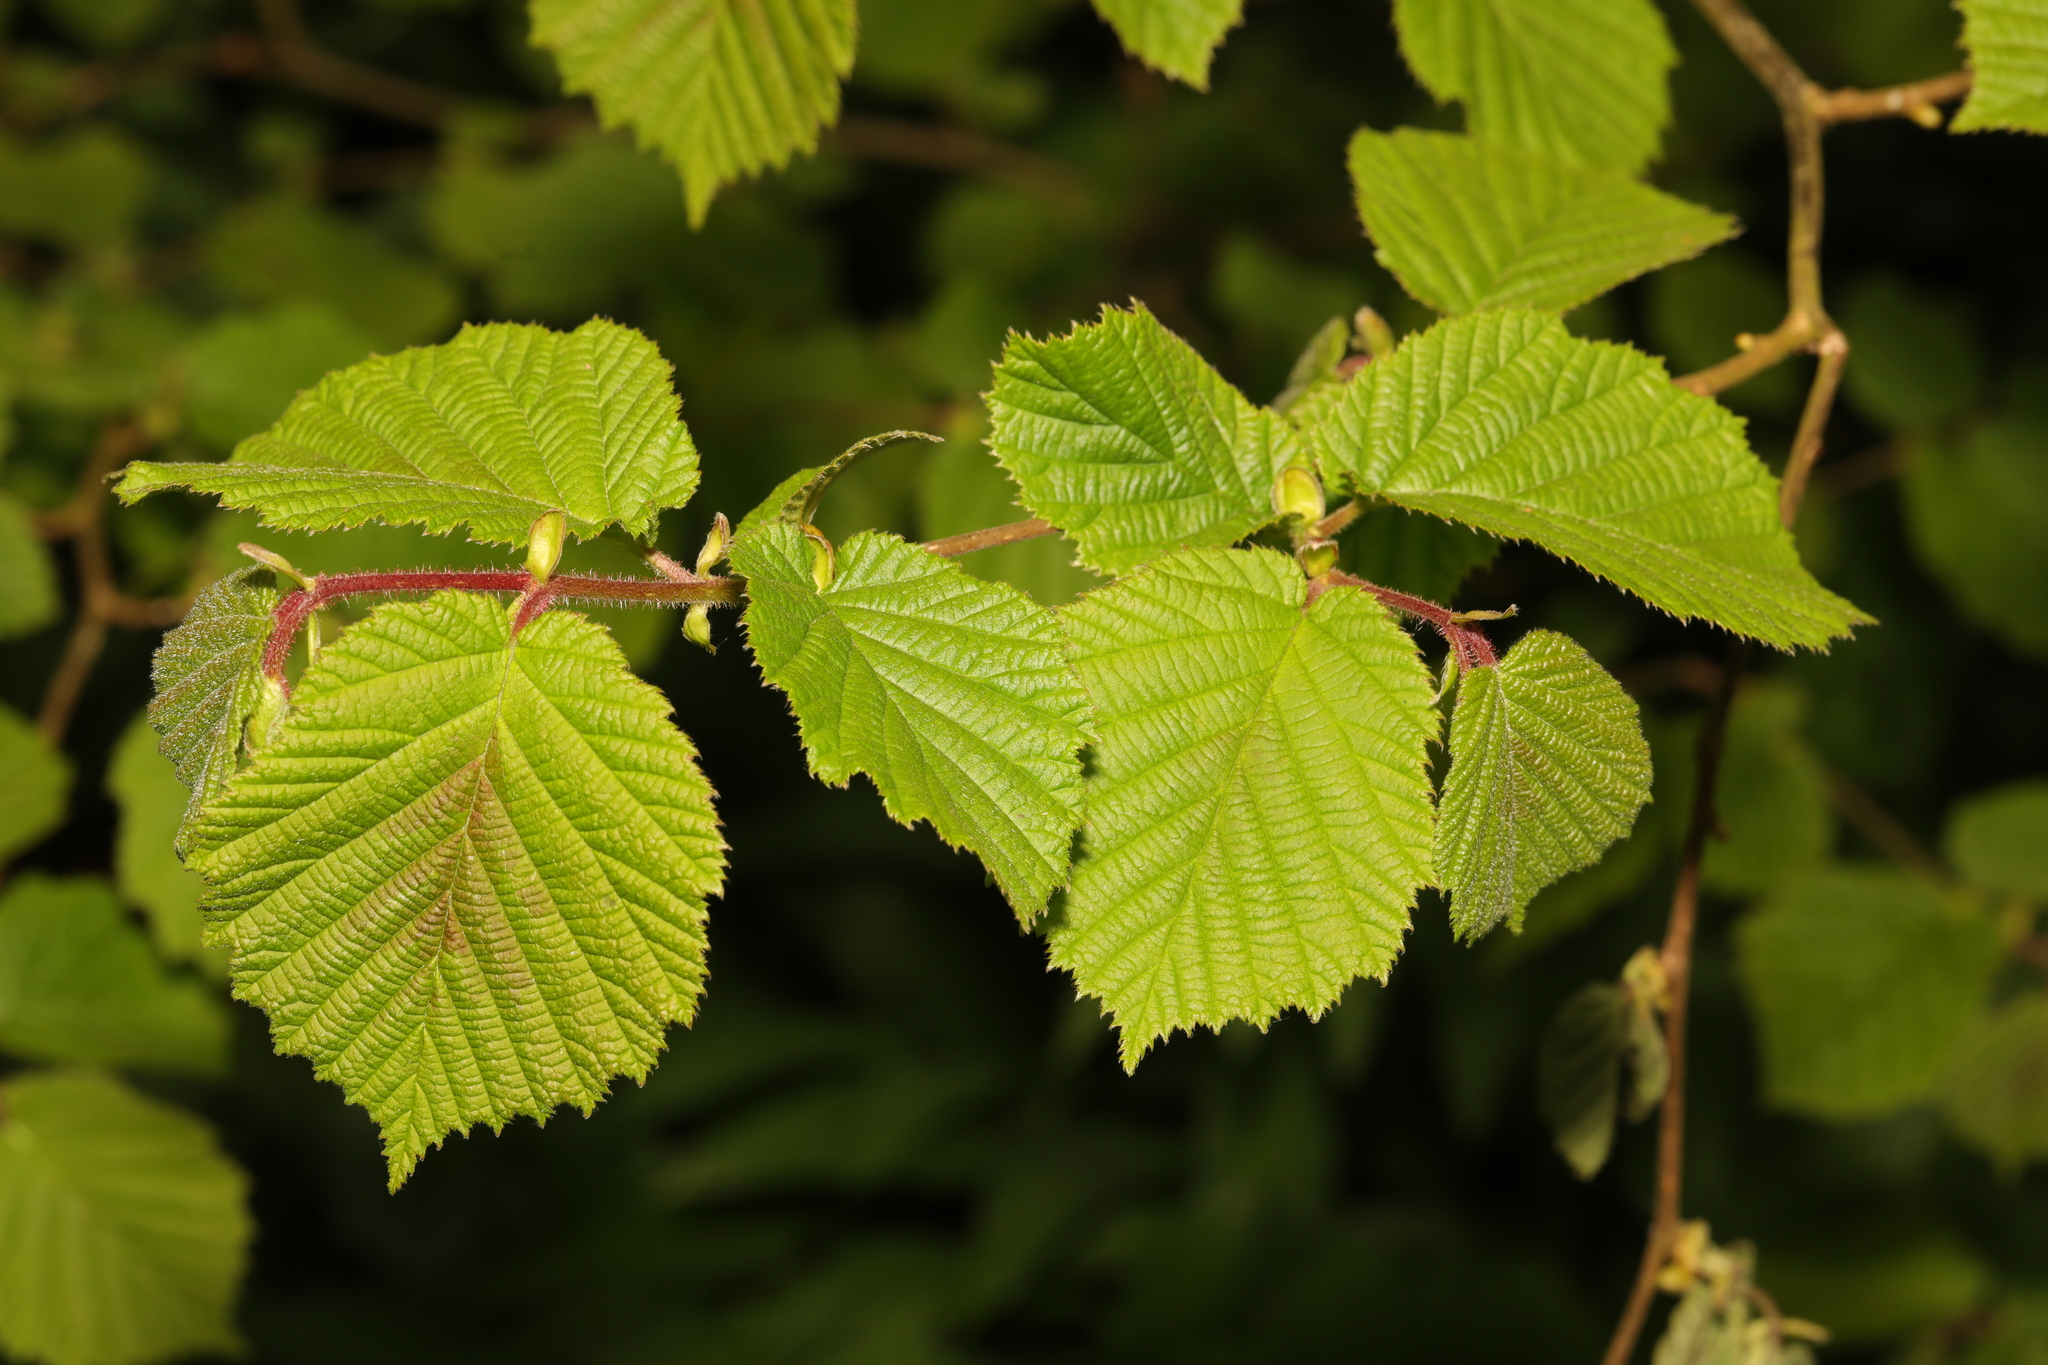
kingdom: Plantae
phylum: Tracheophyta
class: Magnoliopsida
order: Fagales
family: Betulaceae
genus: Corylus
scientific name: Corylus avellana
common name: European hazel
